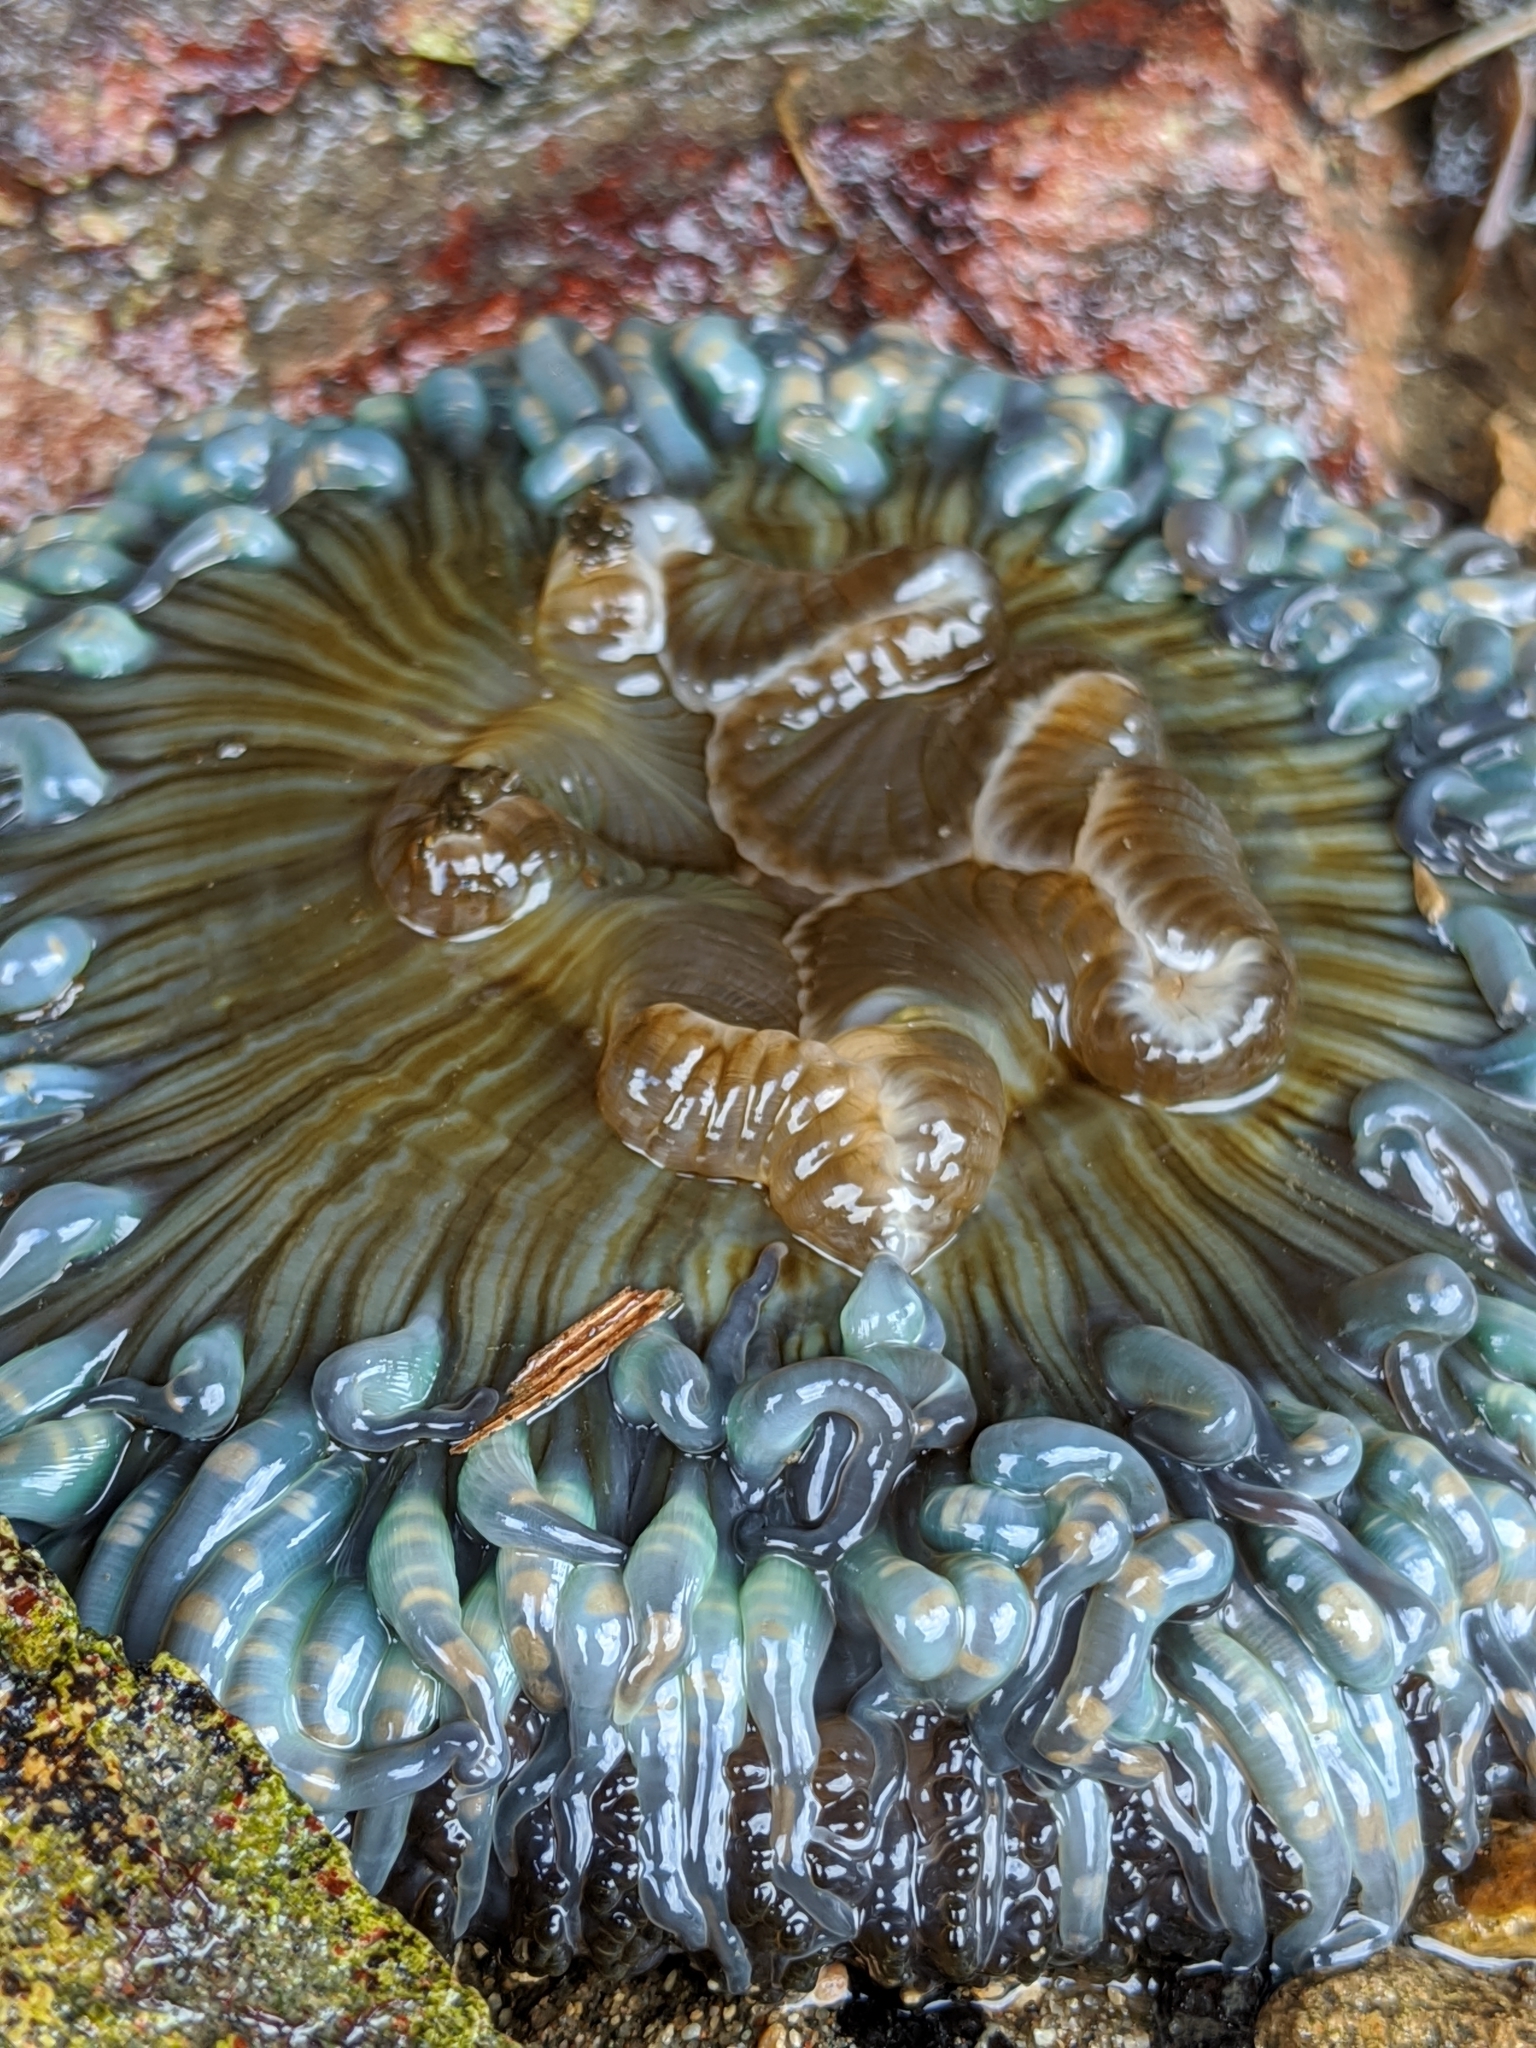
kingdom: Animalia
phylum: Cnidaria
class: Anthozoa
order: Actiniaria
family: Actiniidae
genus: Anthopleura
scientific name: Anthopleura sola
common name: Sun anemone
